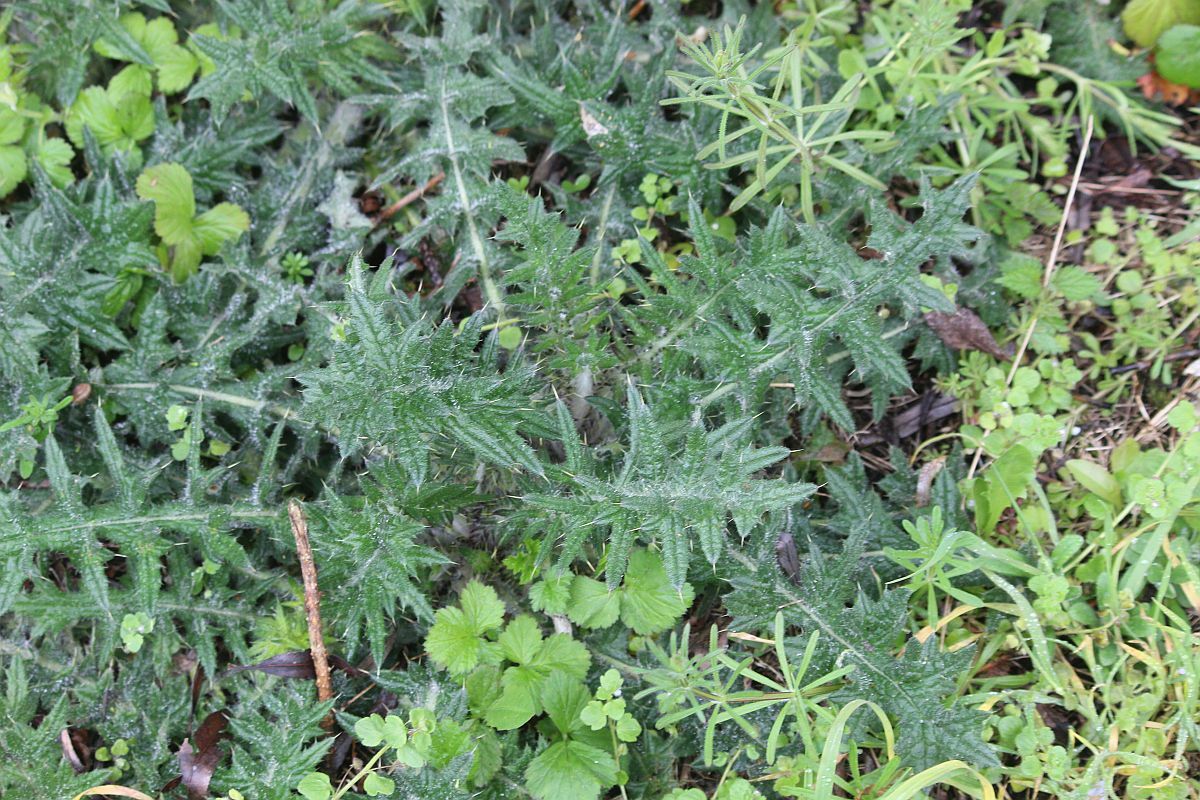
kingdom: Plantae
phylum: Tracheophyta
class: Magnoliopsida
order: Asterales
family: Asteraceae
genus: Cirsium
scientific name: Cirsium vulgare
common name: Bull thistle
